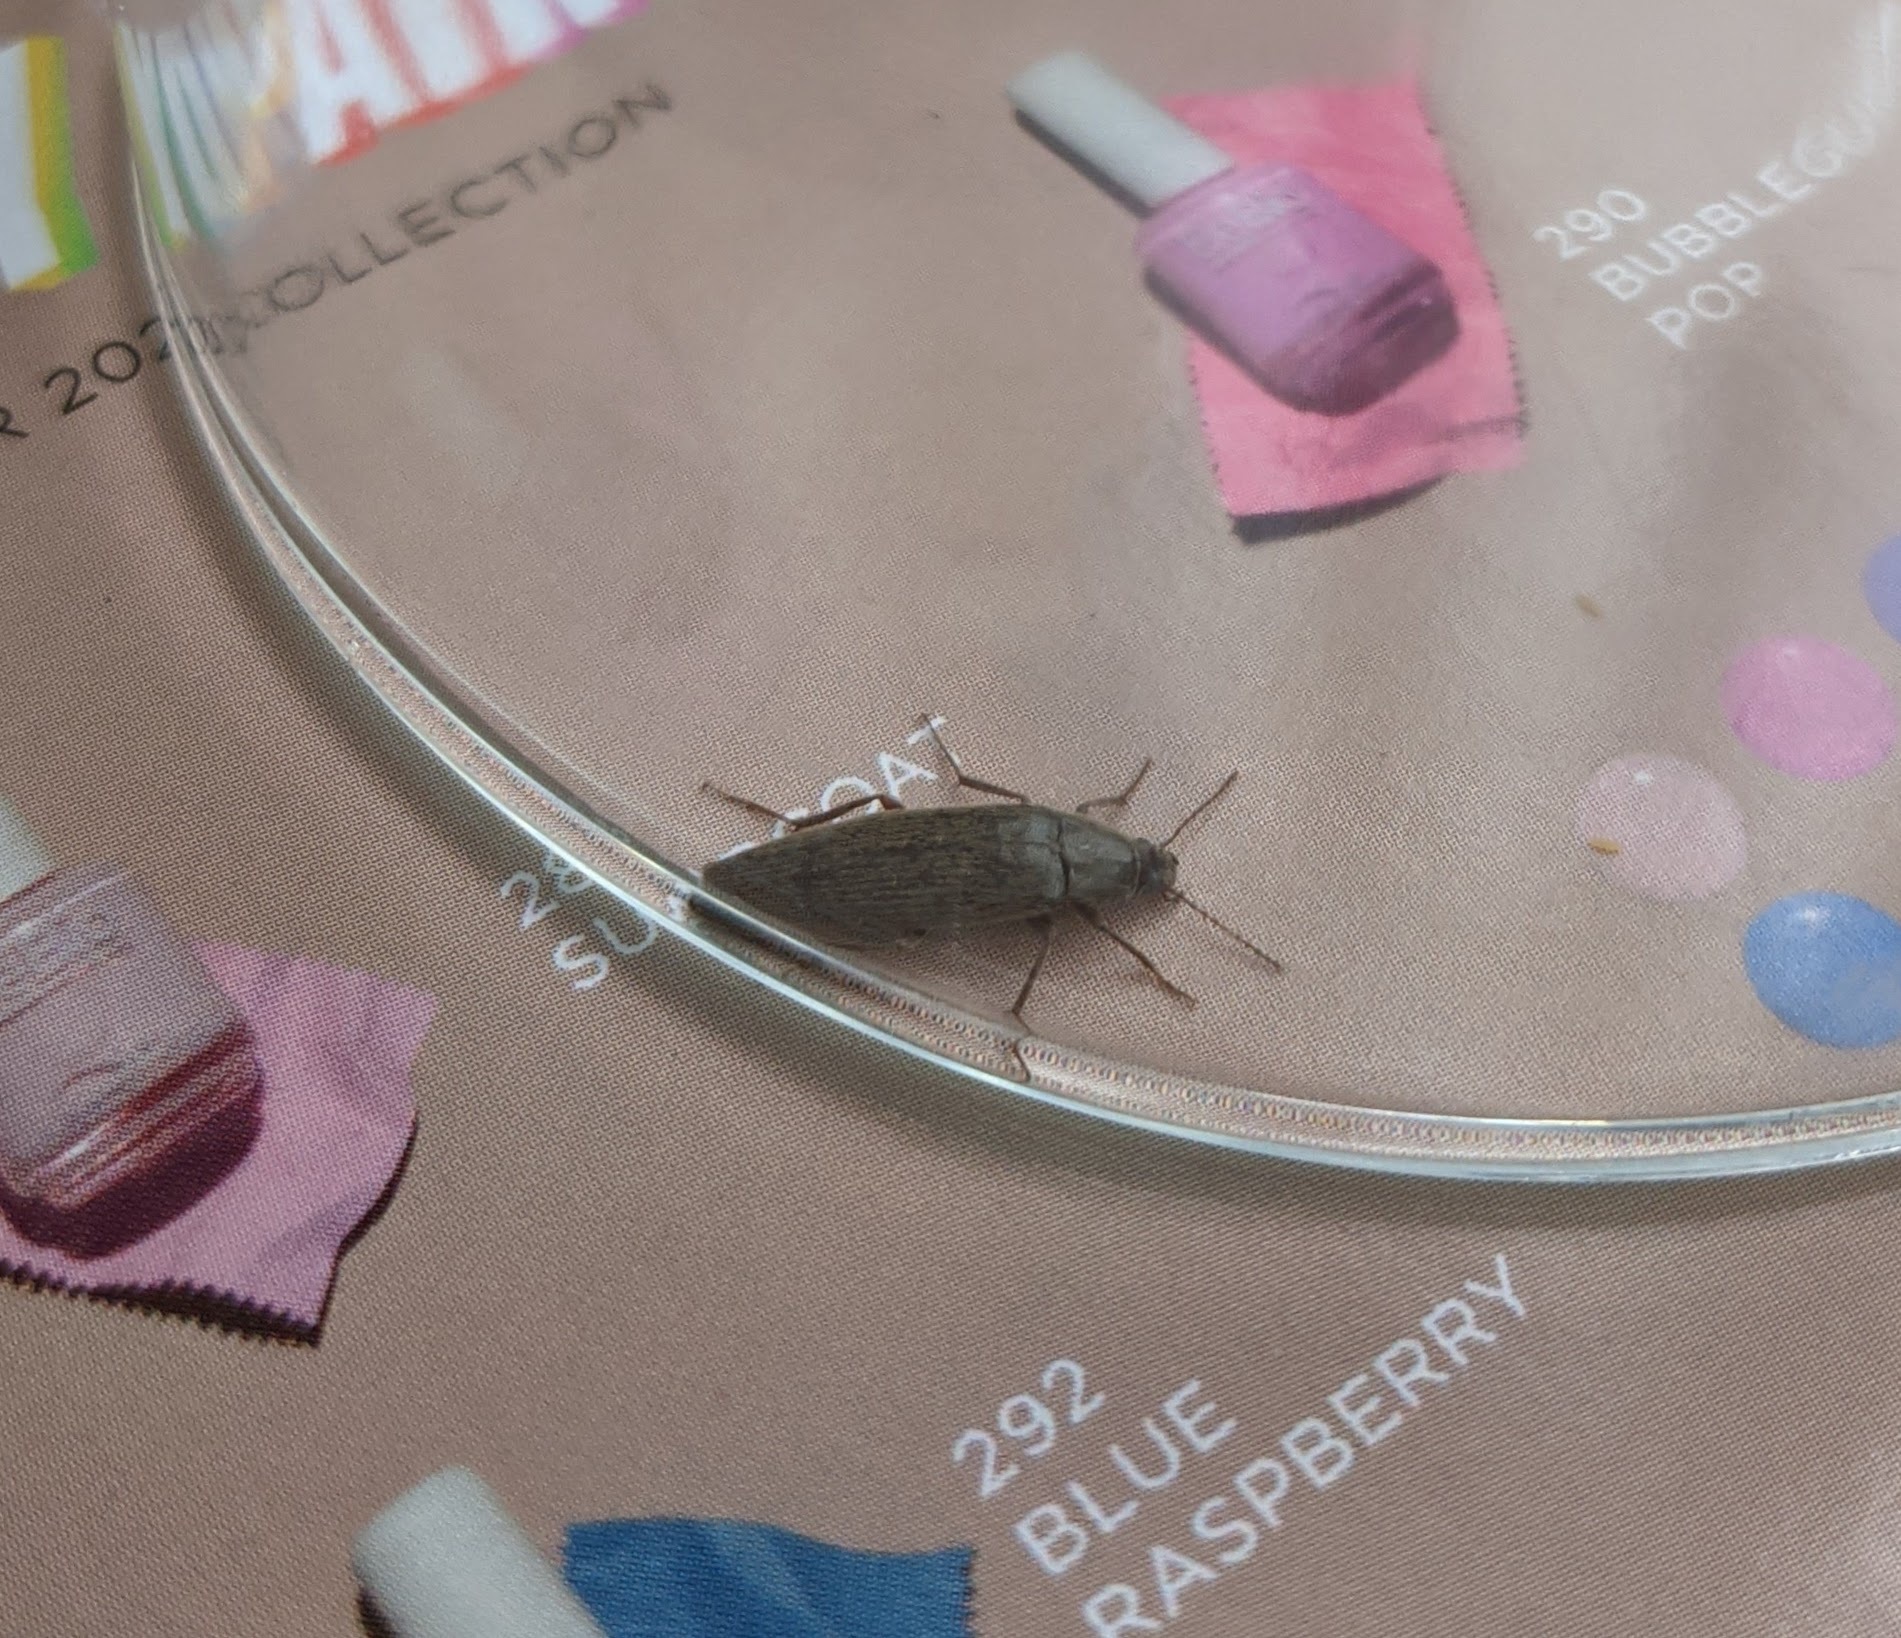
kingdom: Animalia
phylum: Arthropoda
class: Insecta
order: Coleoptera
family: Synchroidae
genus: Synchroa
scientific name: Synchroa punctata
